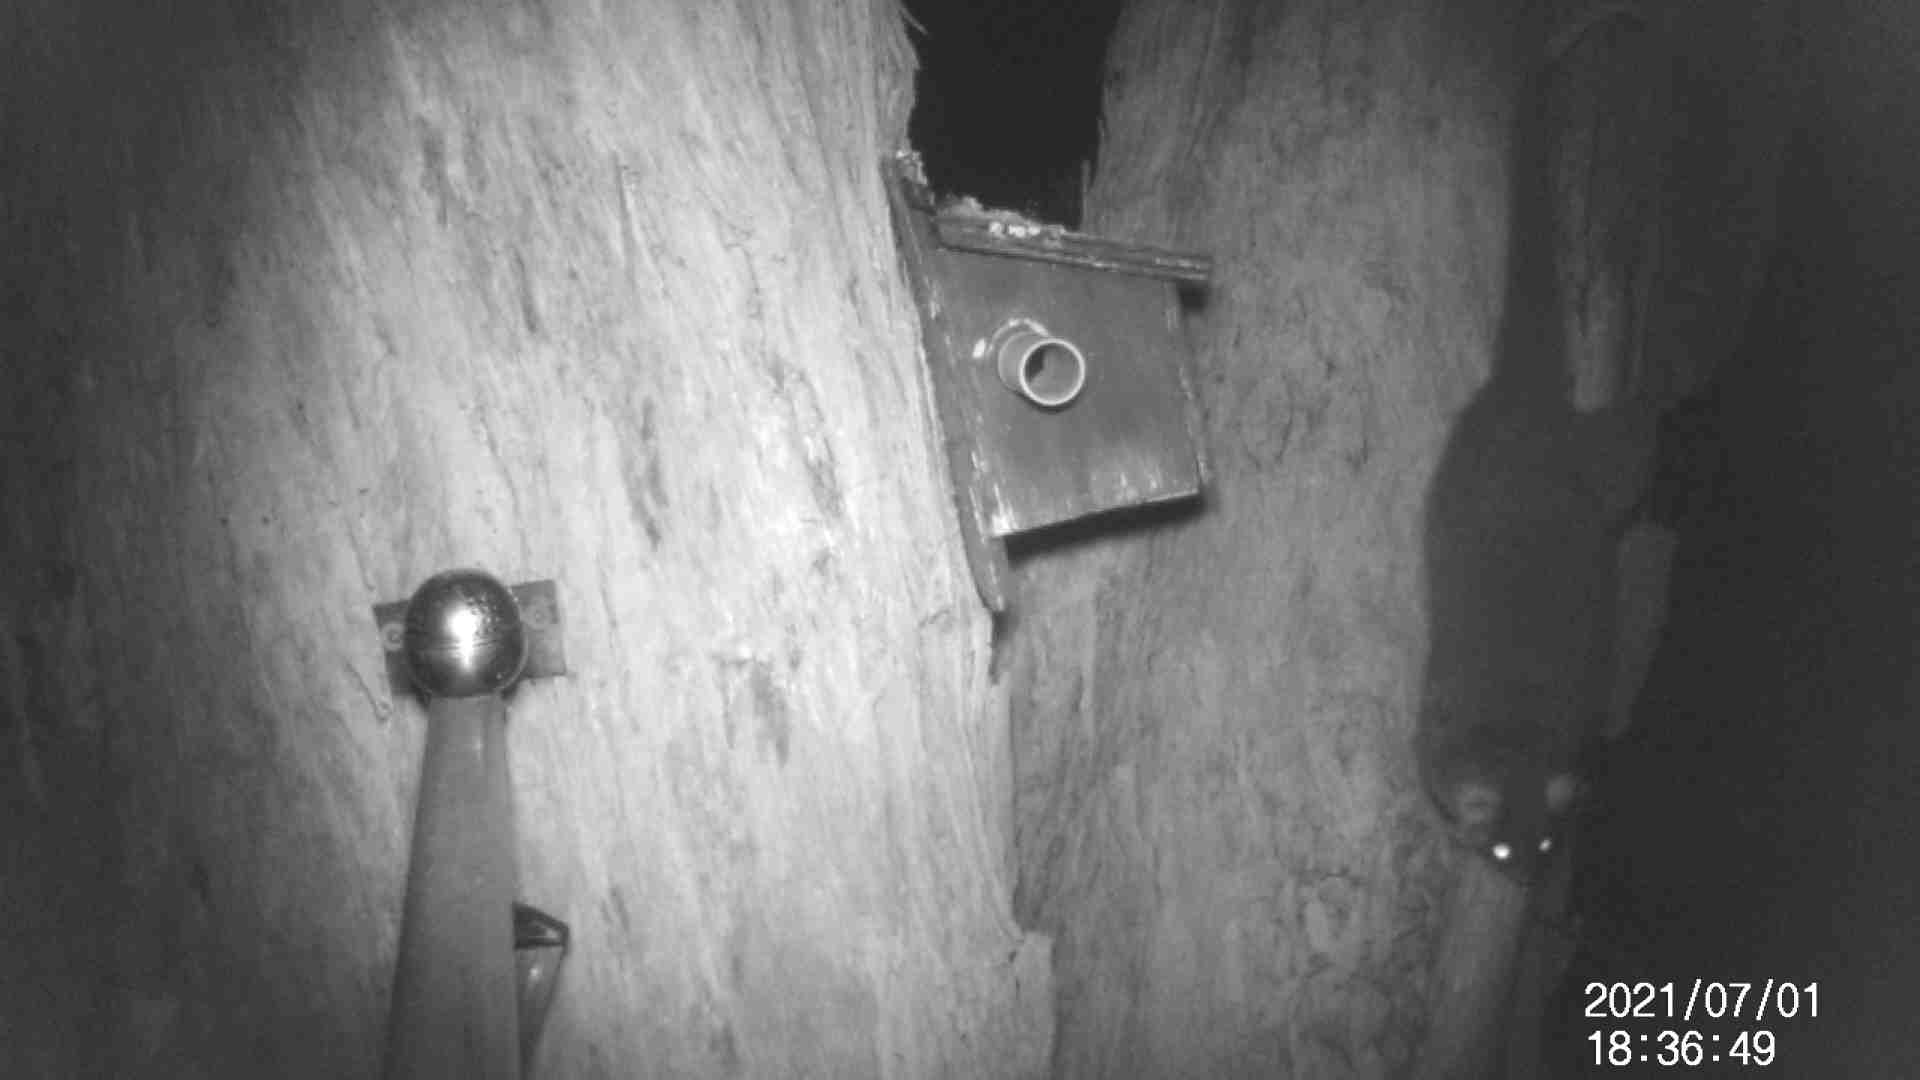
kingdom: Animalia
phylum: Chordata
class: Mammalia
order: Diprotodontia
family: Pseudocheiridae
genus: Pseudocheirus
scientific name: Pseudocheirus peregrinus
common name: Common ringtail possum
